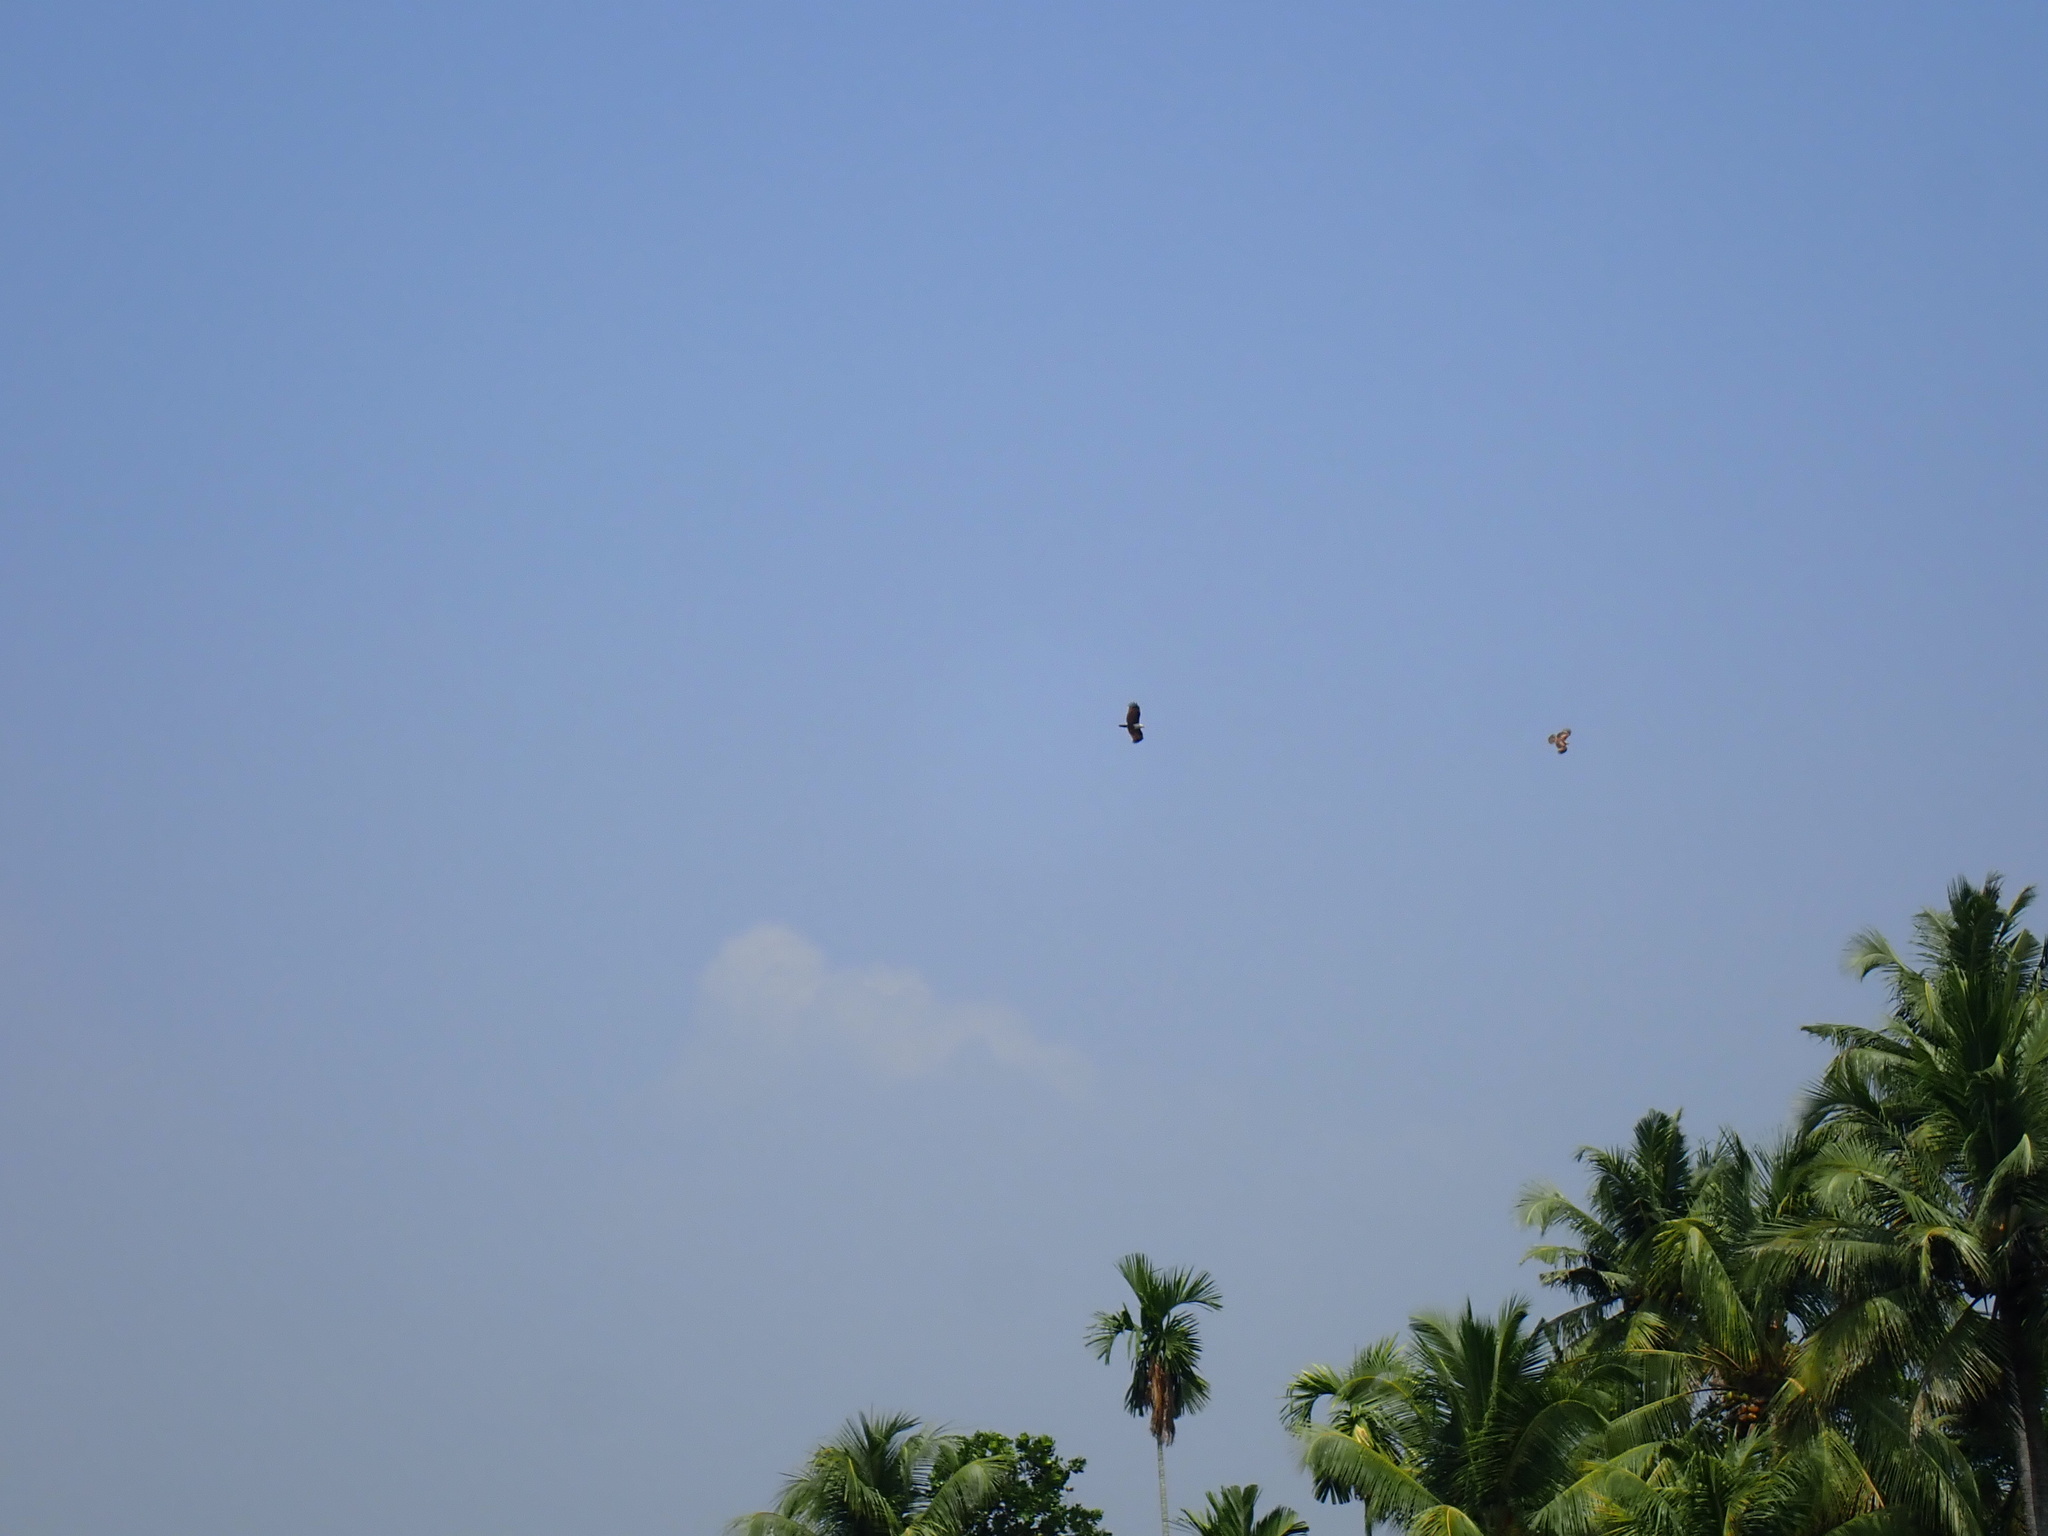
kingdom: Animalia
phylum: Chordata
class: Aves
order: Accipitriformes
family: Accipitridae
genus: Haliastur
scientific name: Haliastur indus
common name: Brahminy kite
